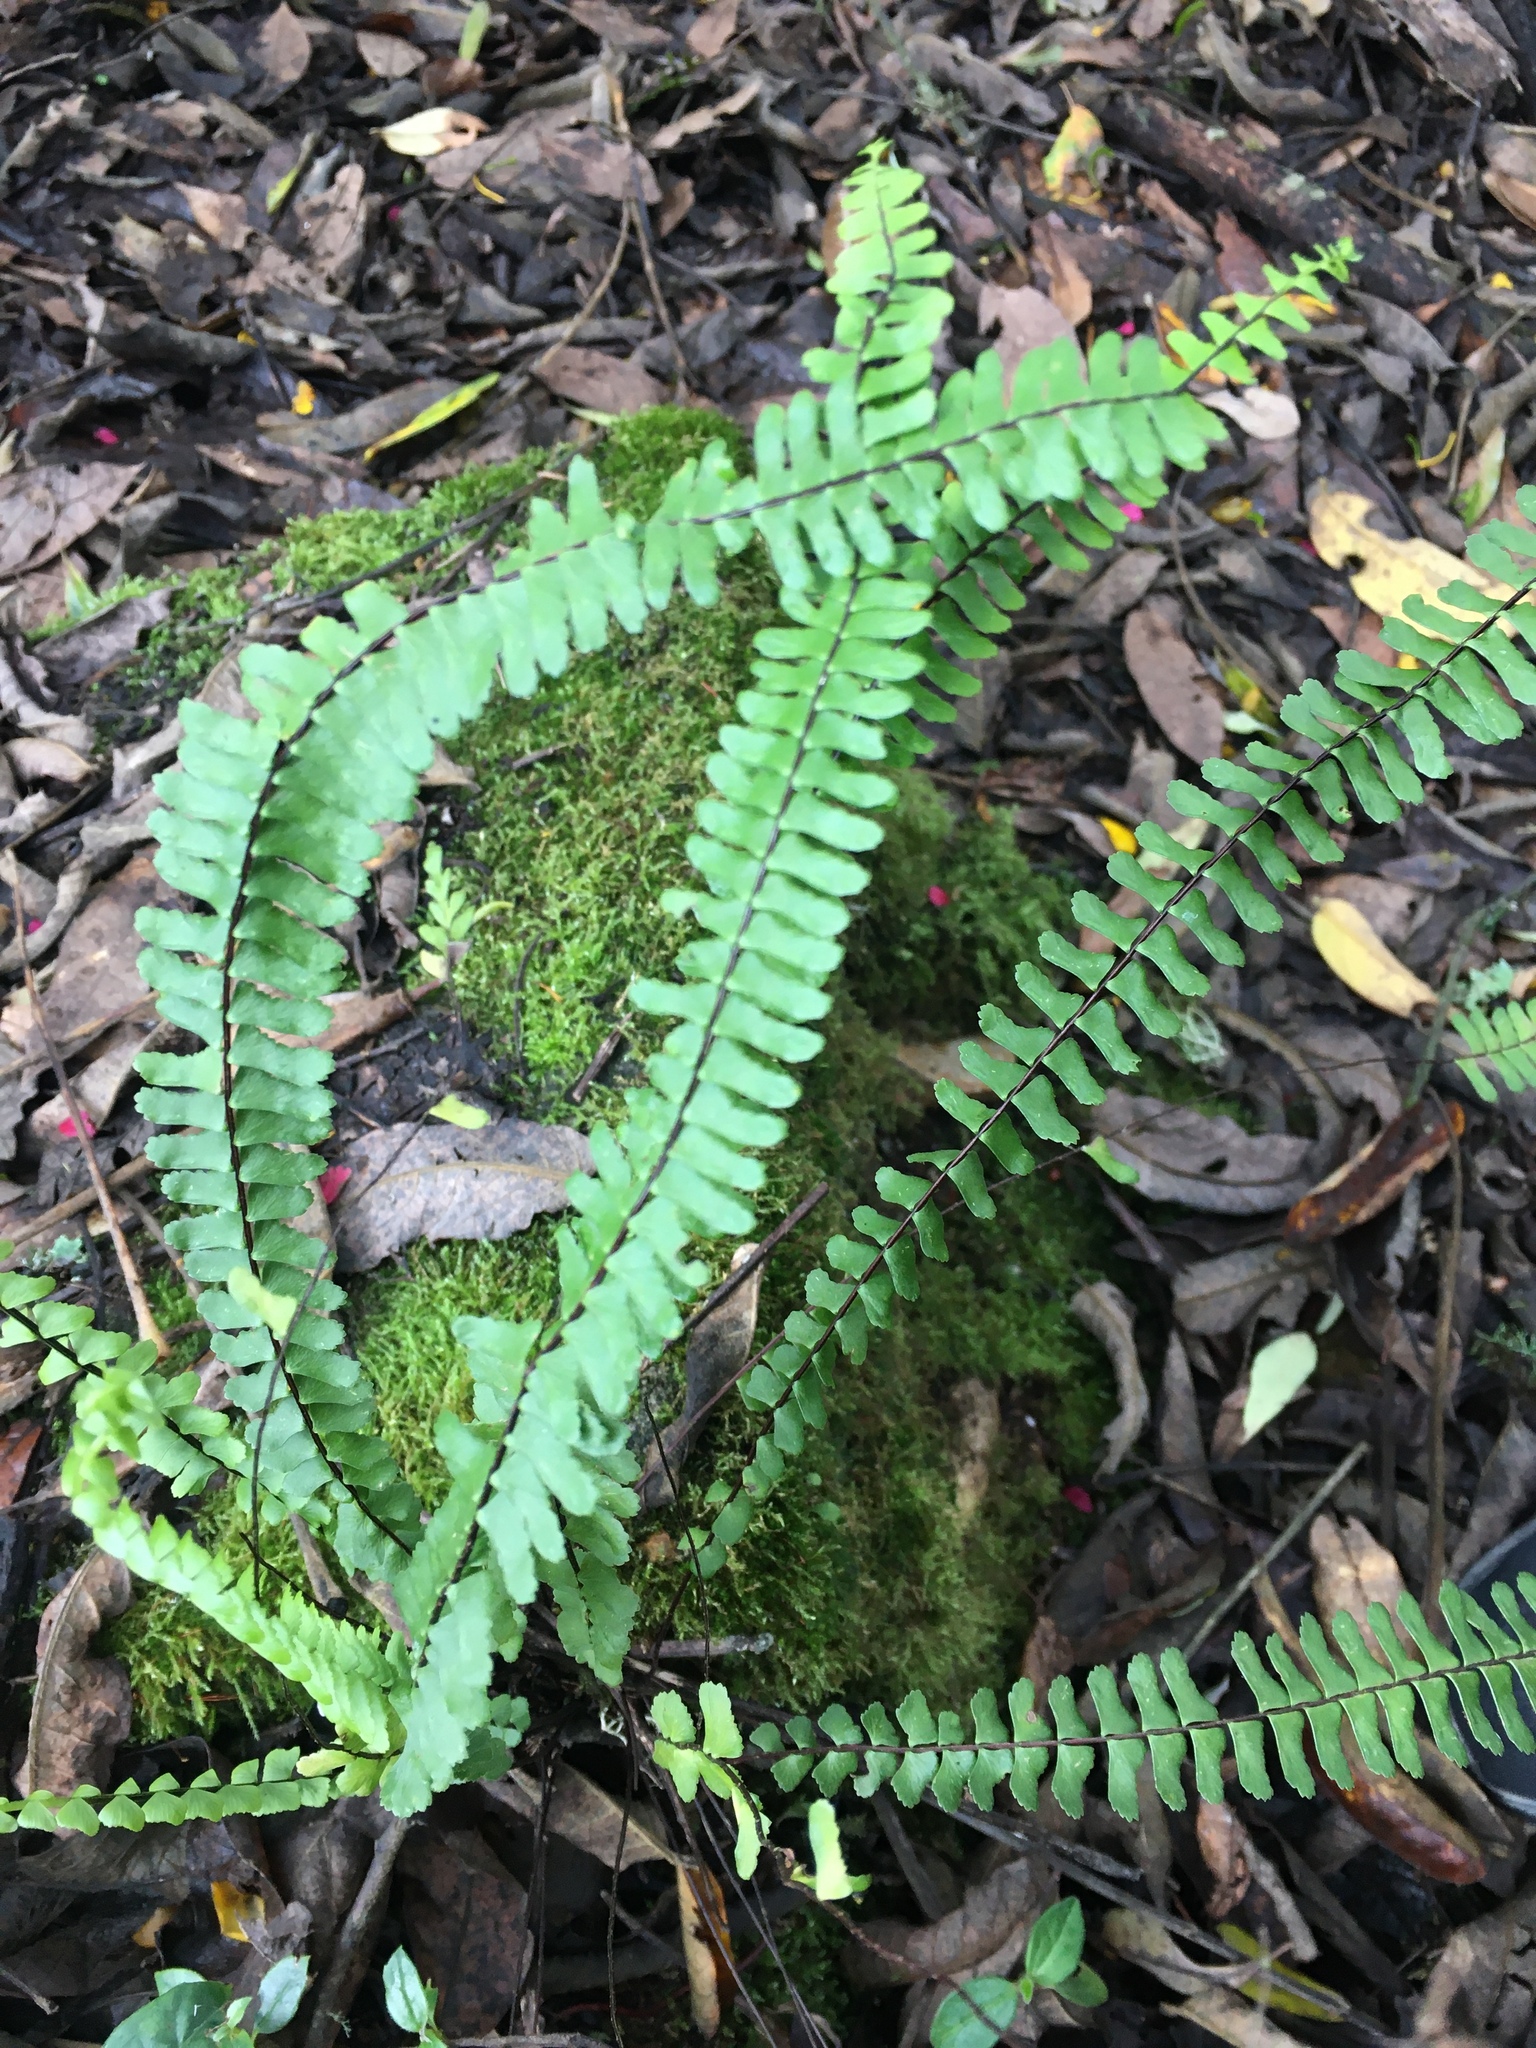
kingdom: Plantae
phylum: Tracheophyta
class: Polypodiopsida
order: Polypodiales
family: Aspleniaceae
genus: Asplenium
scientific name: Asplenium monanthes
